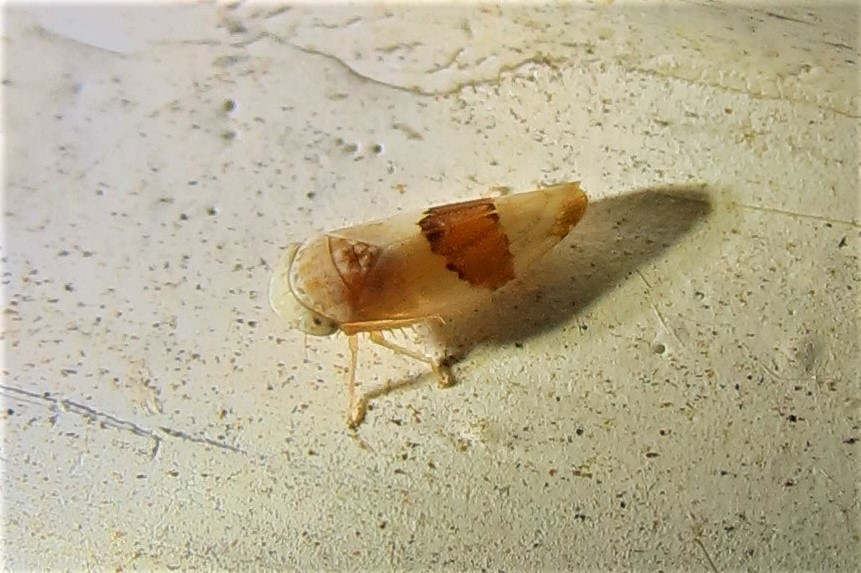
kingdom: Animalia
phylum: Arthropoda
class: Insecta
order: Hemiptera
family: Cicadellidae
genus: Norvellina
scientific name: Norvellina seminuda
